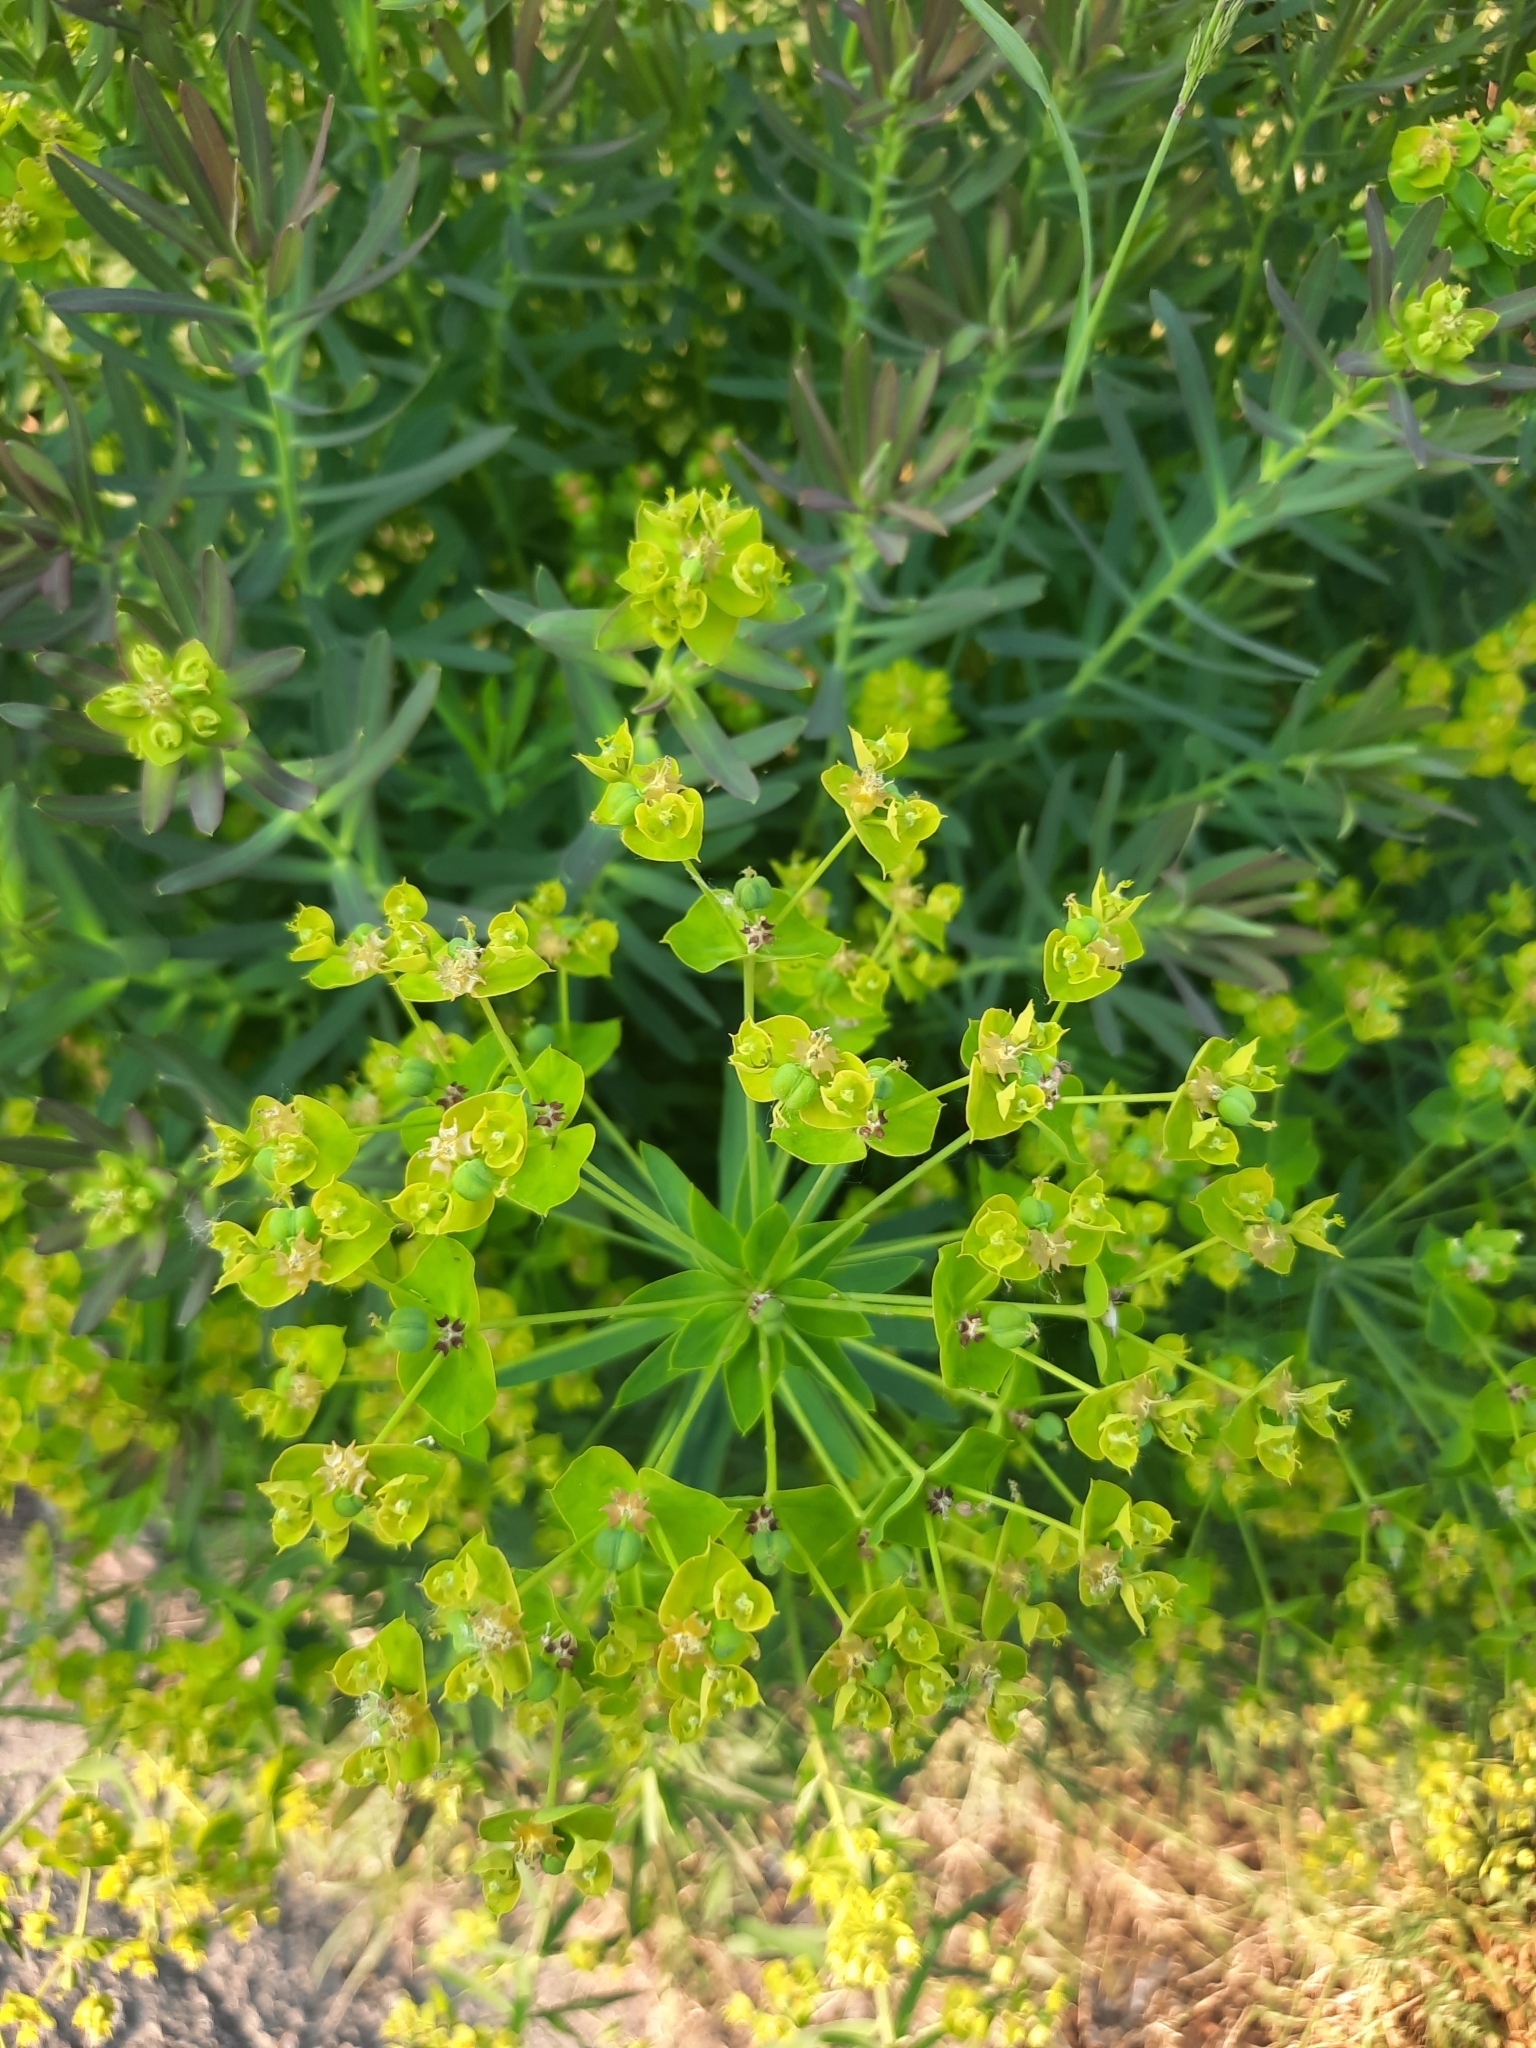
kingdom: Plantae
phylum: Tracheophyta
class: Magnoliopsida
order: Malpighiales
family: Euphorbiaceae
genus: Euphorbia
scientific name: Euphorbia virgata
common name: Leafy spurge
